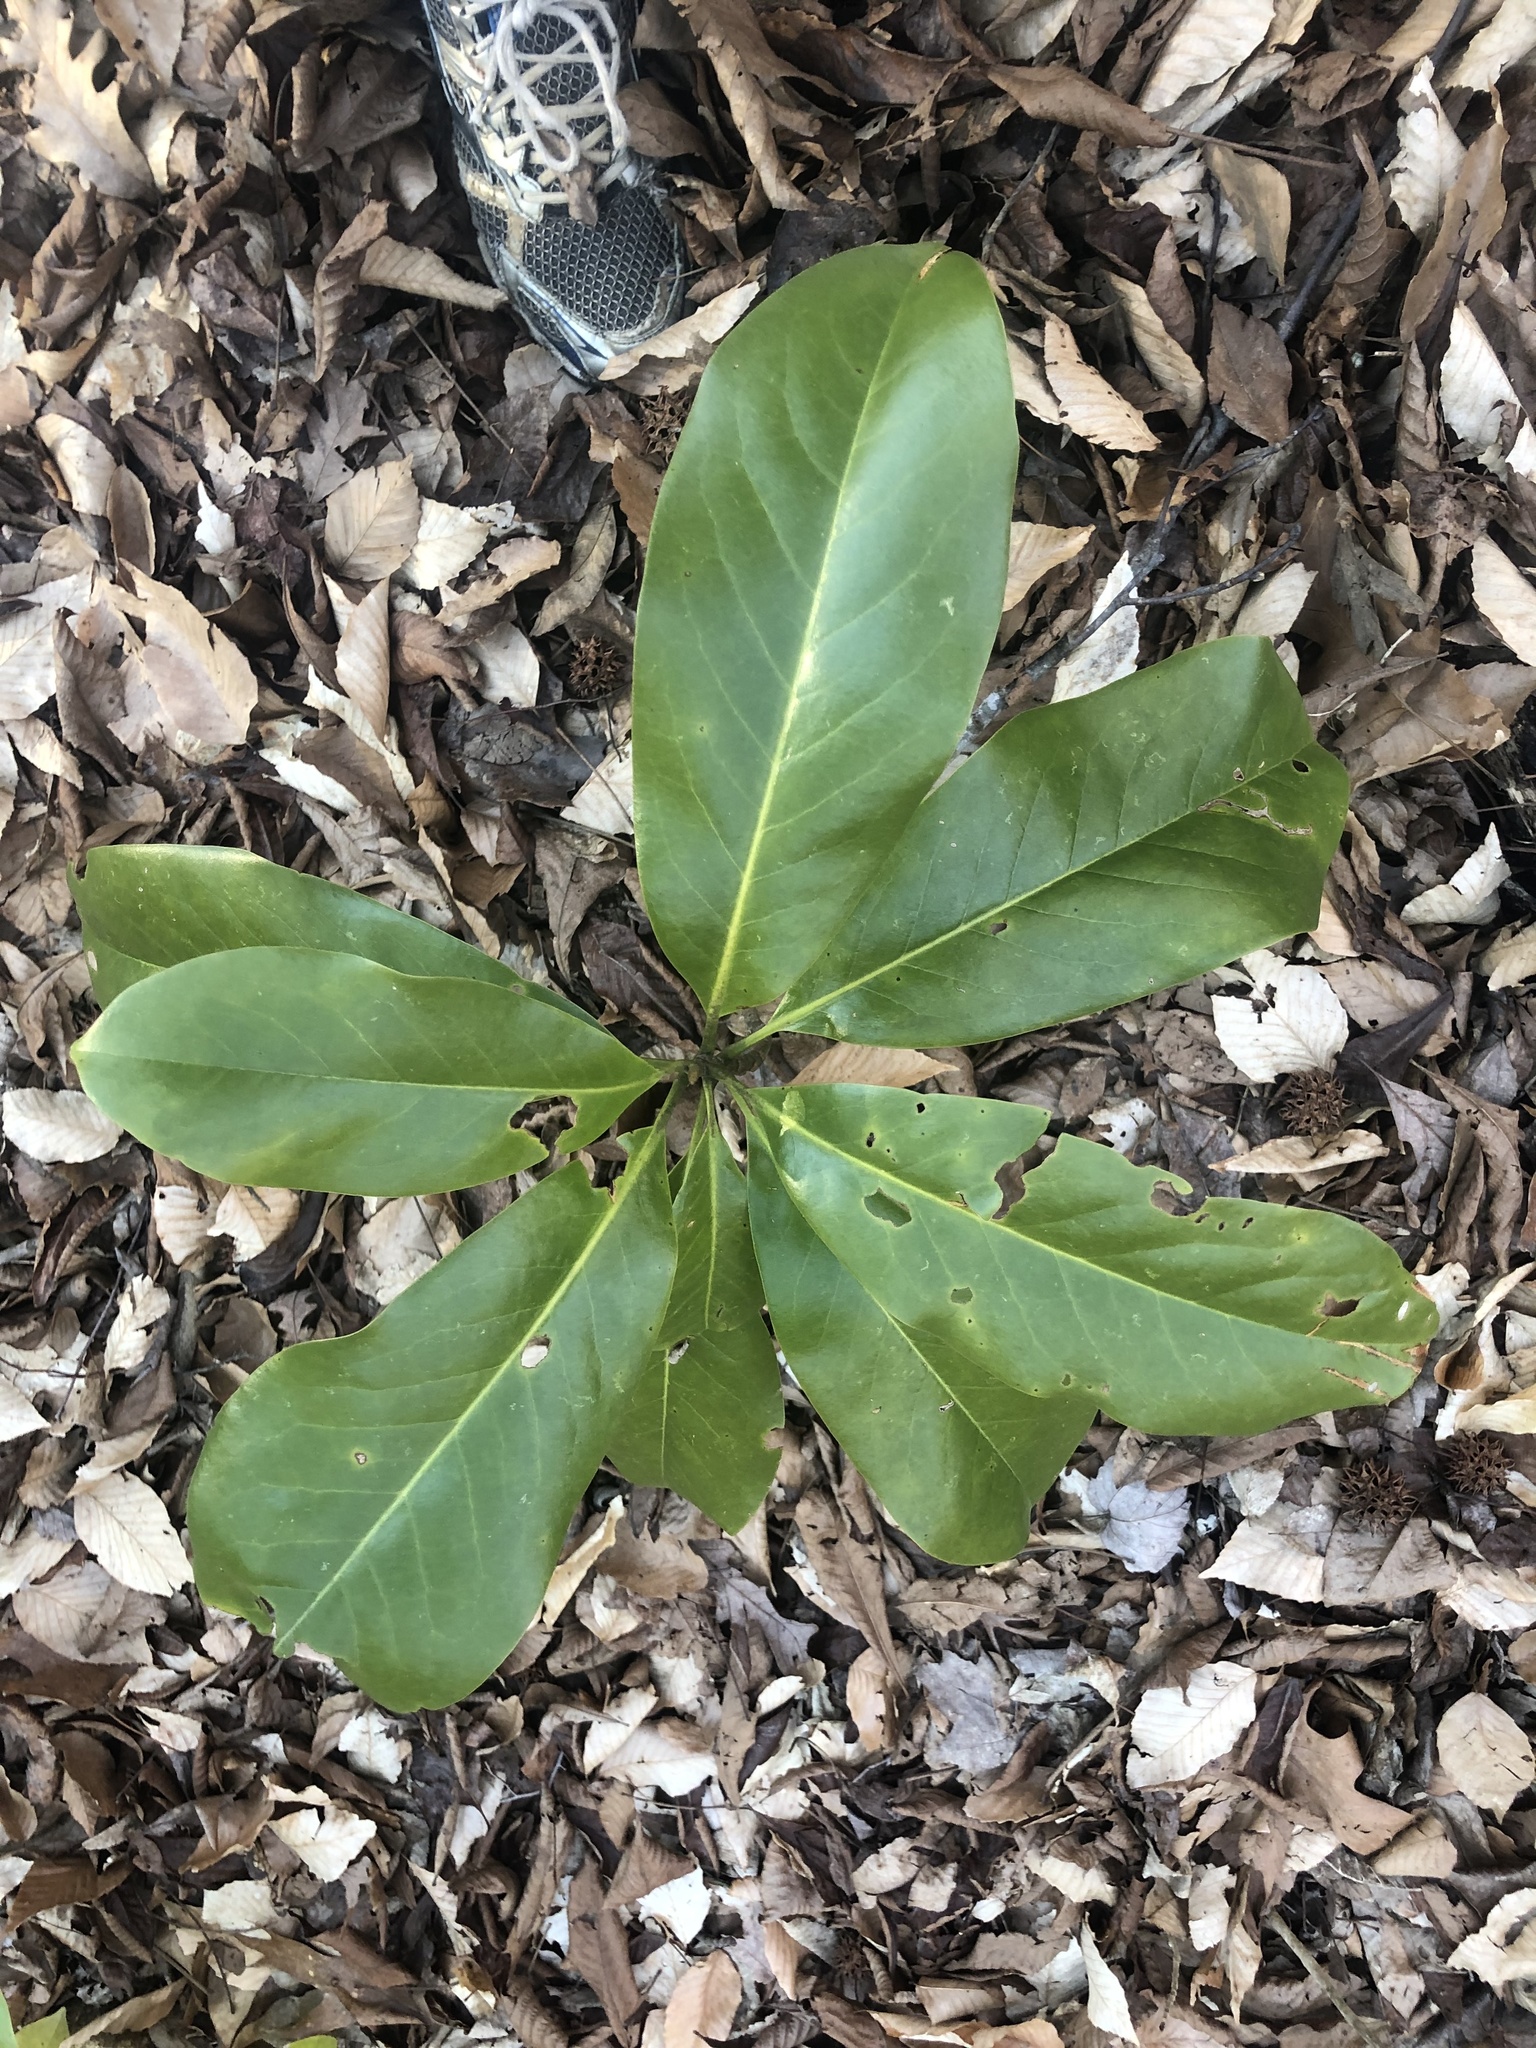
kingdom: Plantae
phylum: Tracheophyta
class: Magnoliopsida
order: Magnoliales
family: Magnoliaceae
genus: Magnolia
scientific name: Magnolia grandiflora
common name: Southern magnolia
